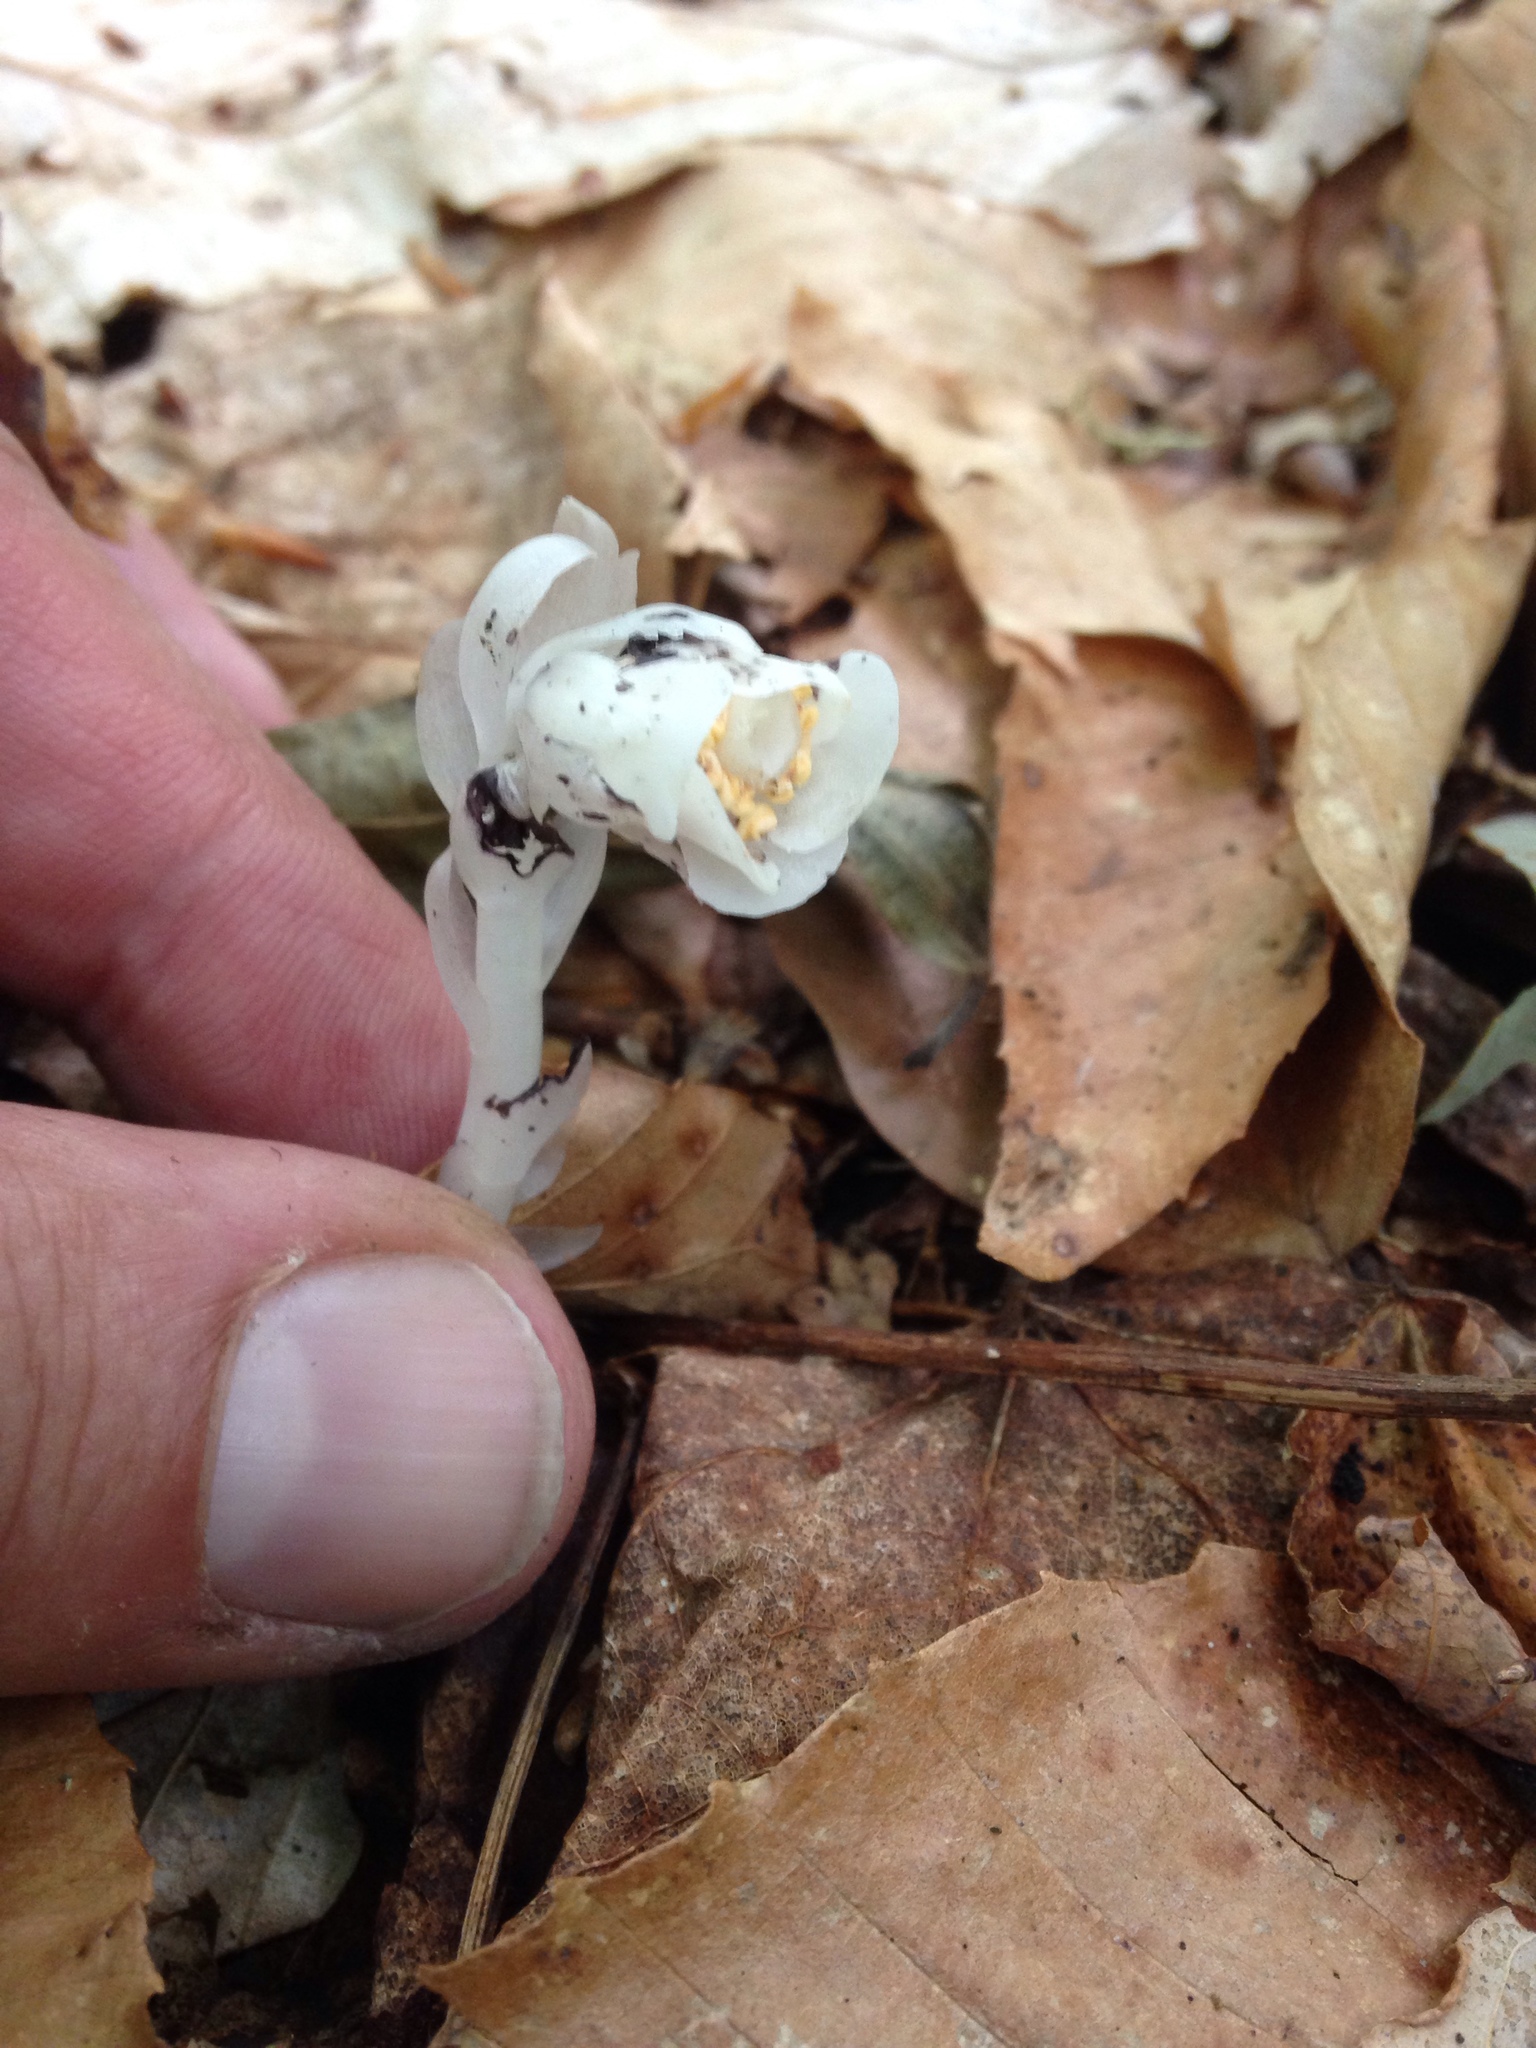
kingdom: Plantae
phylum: Tracheophyta
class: Magnoliopsida
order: Ericales
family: Ericaceae
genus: Monotropa
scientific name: Monotropa uniflora
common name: Convulsion root
